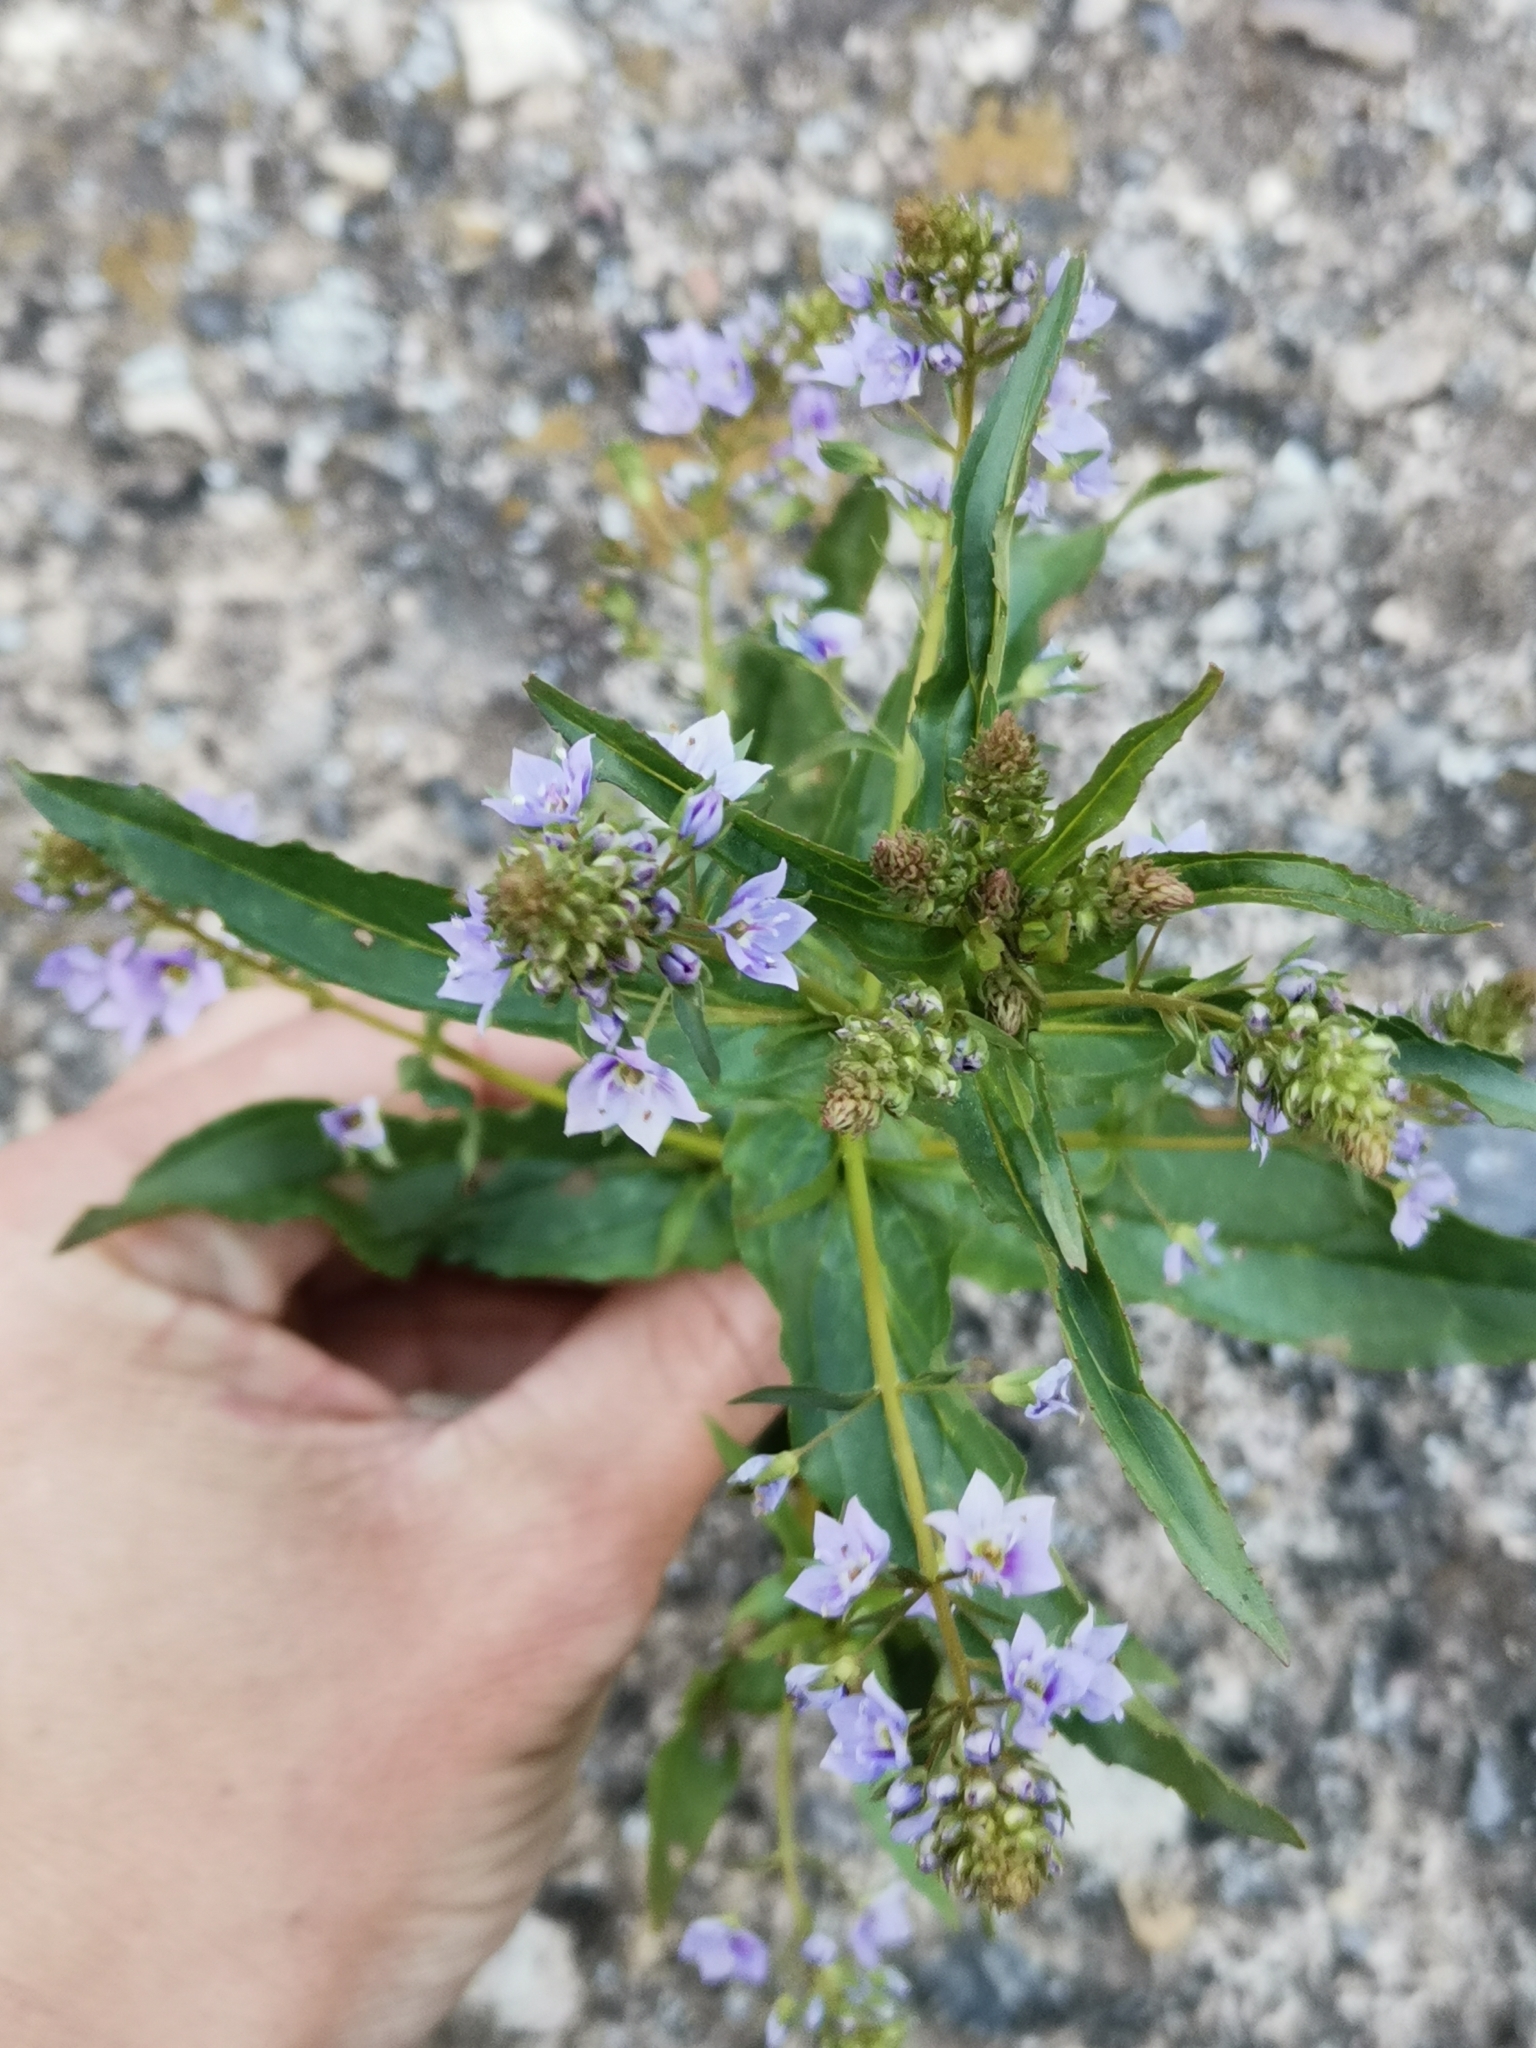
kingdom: Plantae
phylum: Tracheophyta
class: Magnoliopsida
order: Lamiales
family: Plantaginaceae
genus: Veronica
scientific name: Veronica anagallis-aquatica
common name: Water speedwell
